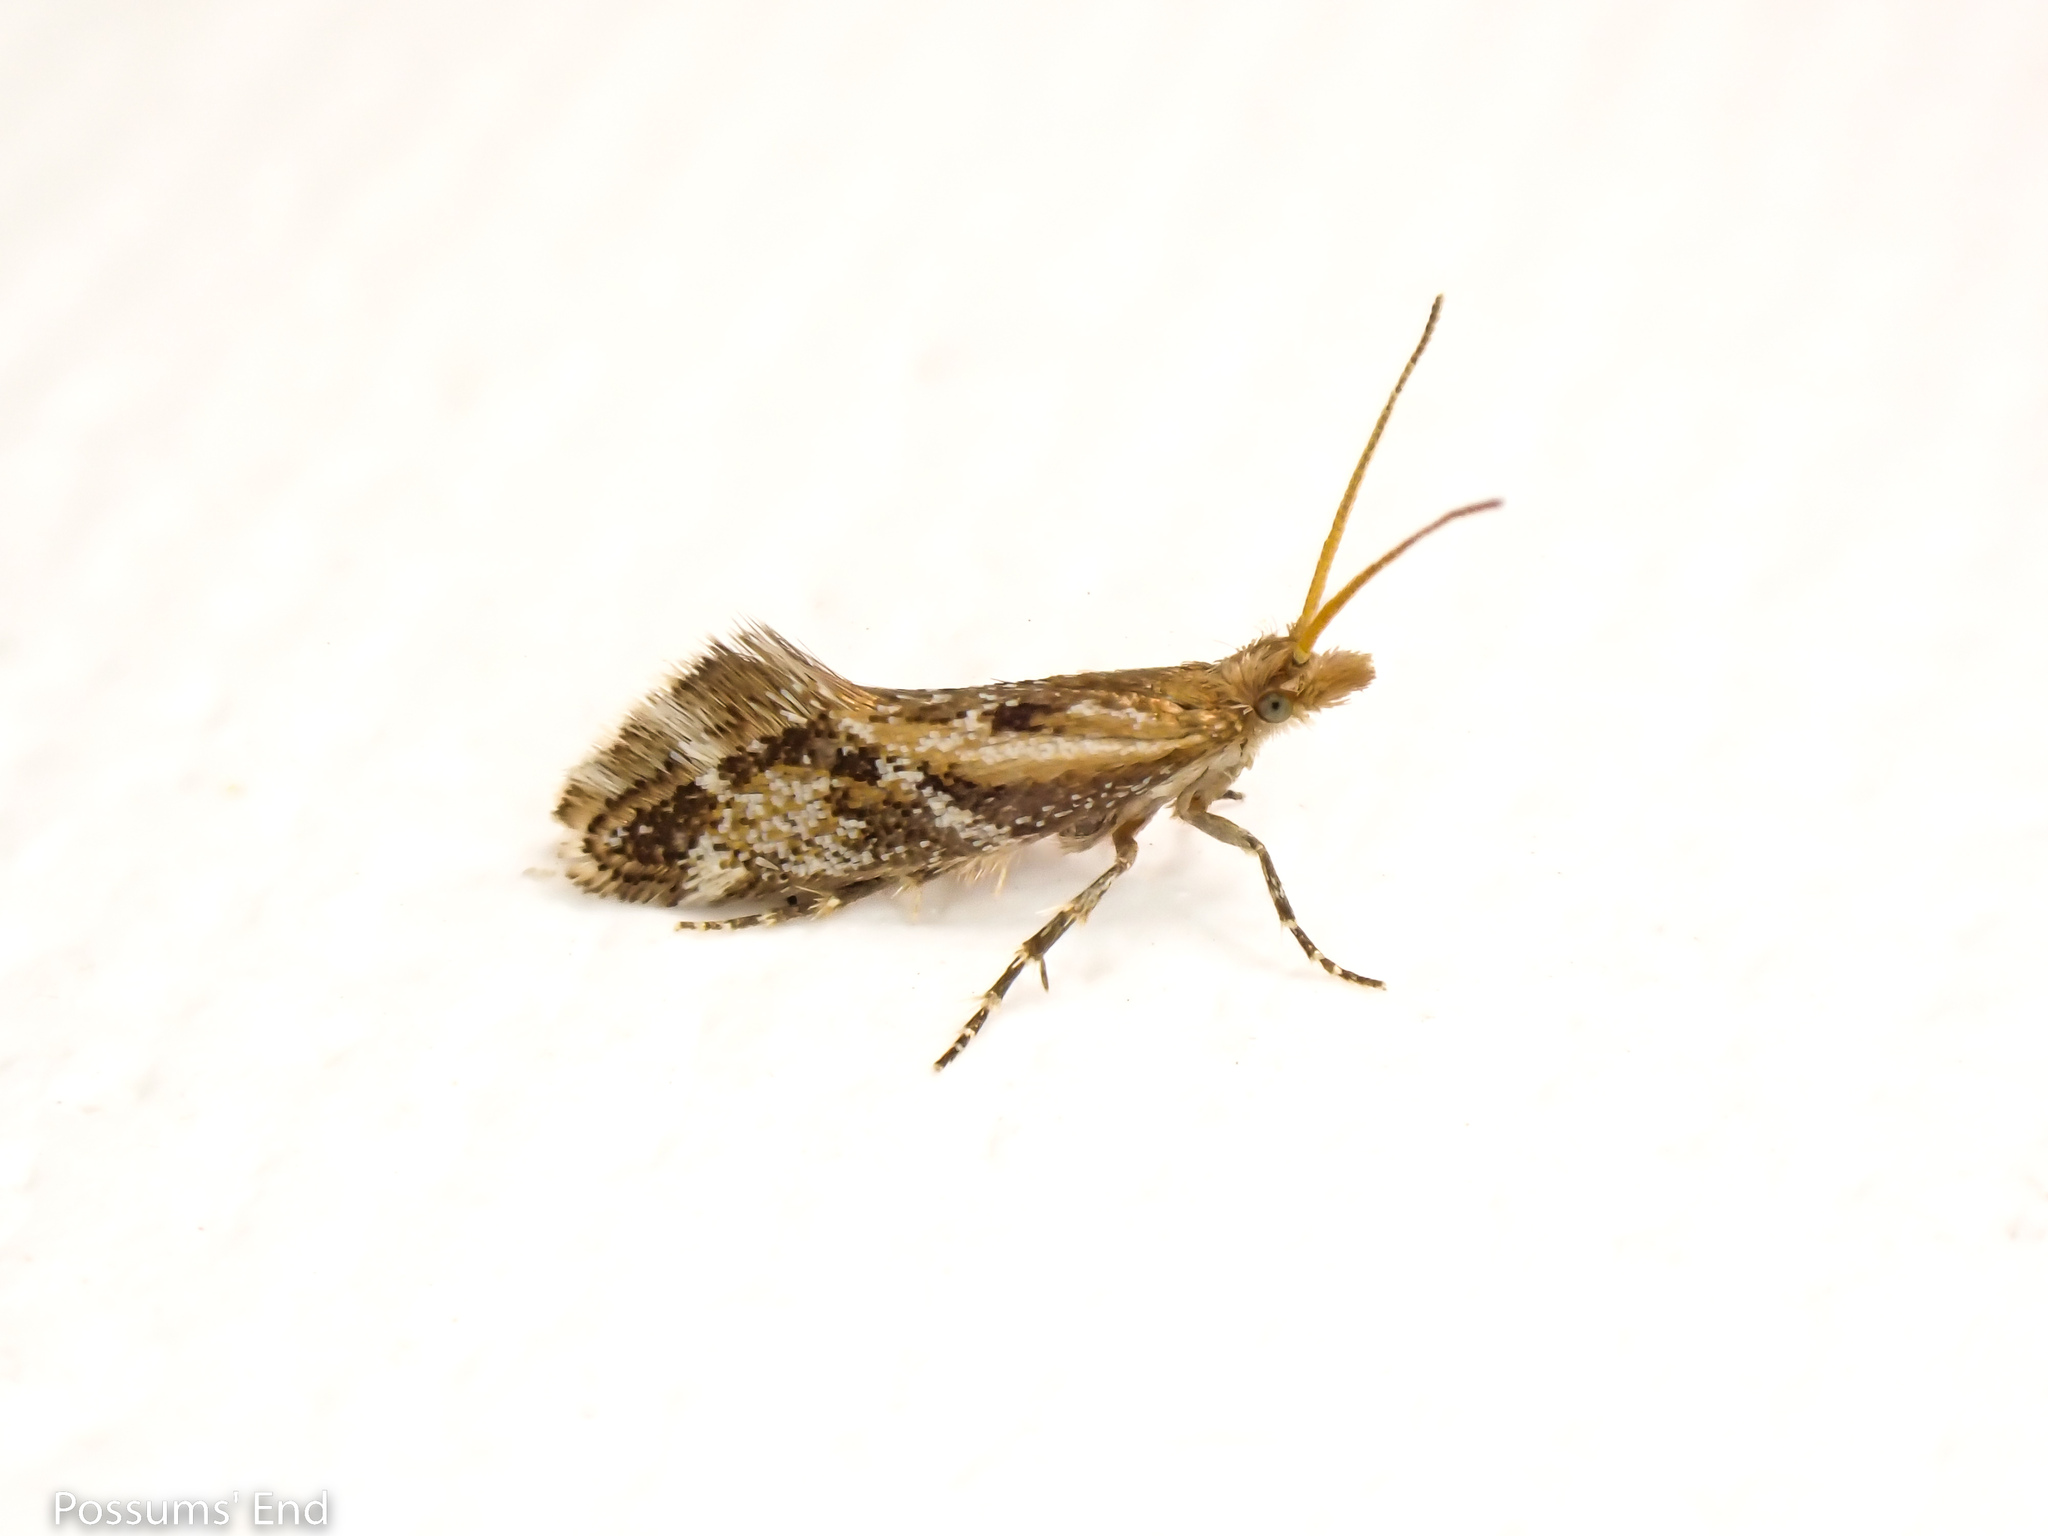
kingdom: Animalia
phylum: Arthropoda
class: Insecta
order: Lepidoptera
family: Mnesarchaeidae
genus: Mnesarchaea
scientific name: Mnesarchaea paracosma
